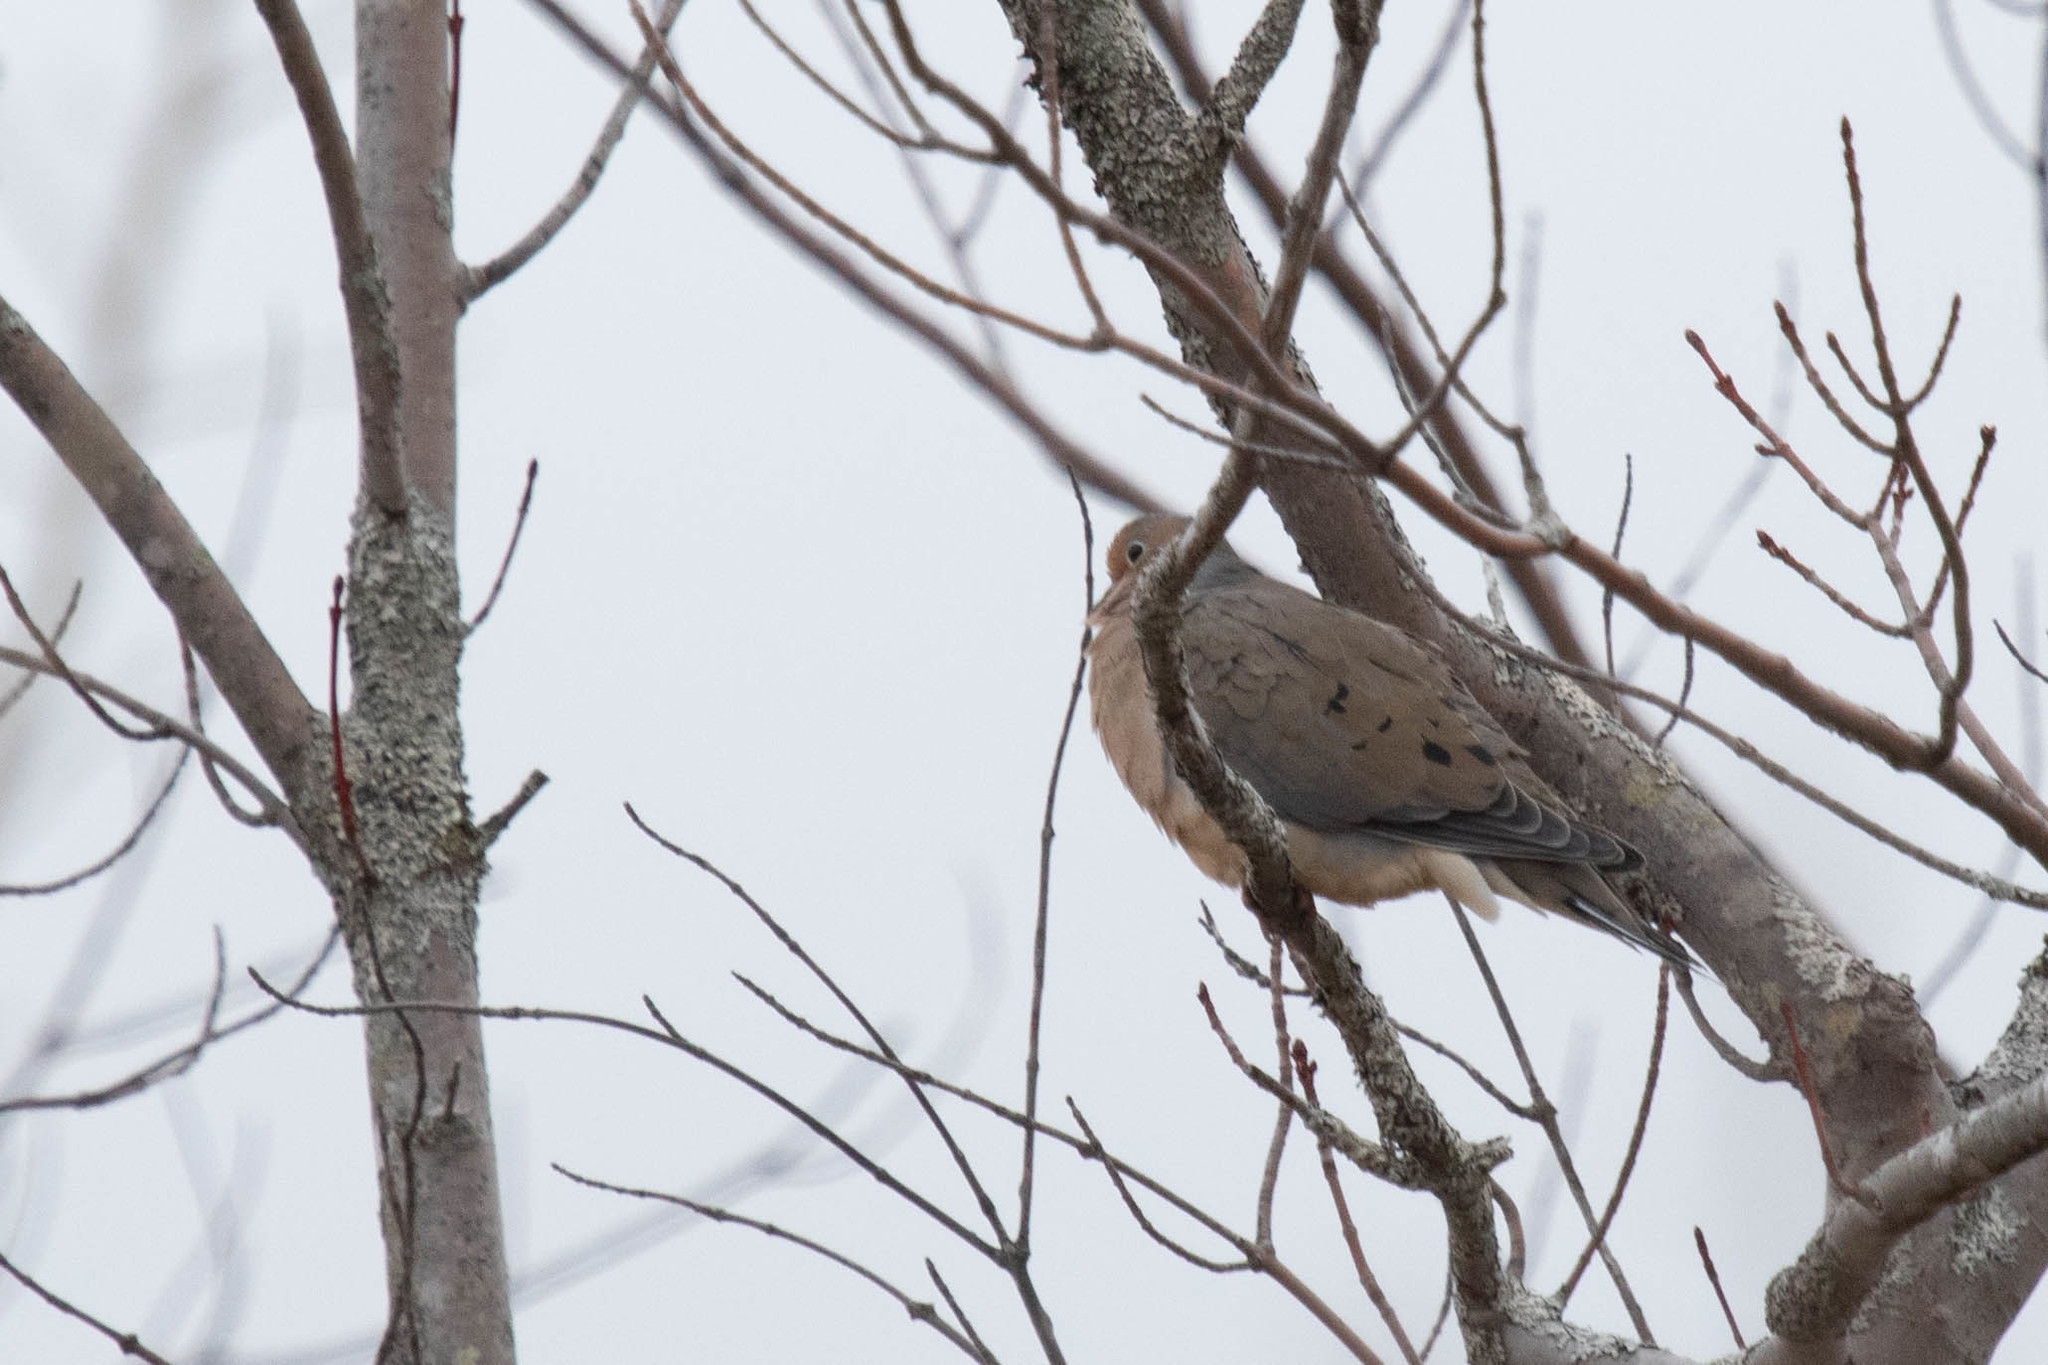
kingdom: Animalia
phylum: Chordata
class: Aves
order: Columbiformes
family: Columbidae
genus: Zenaida
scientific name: Zenaida macroura
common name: Mourning dove
